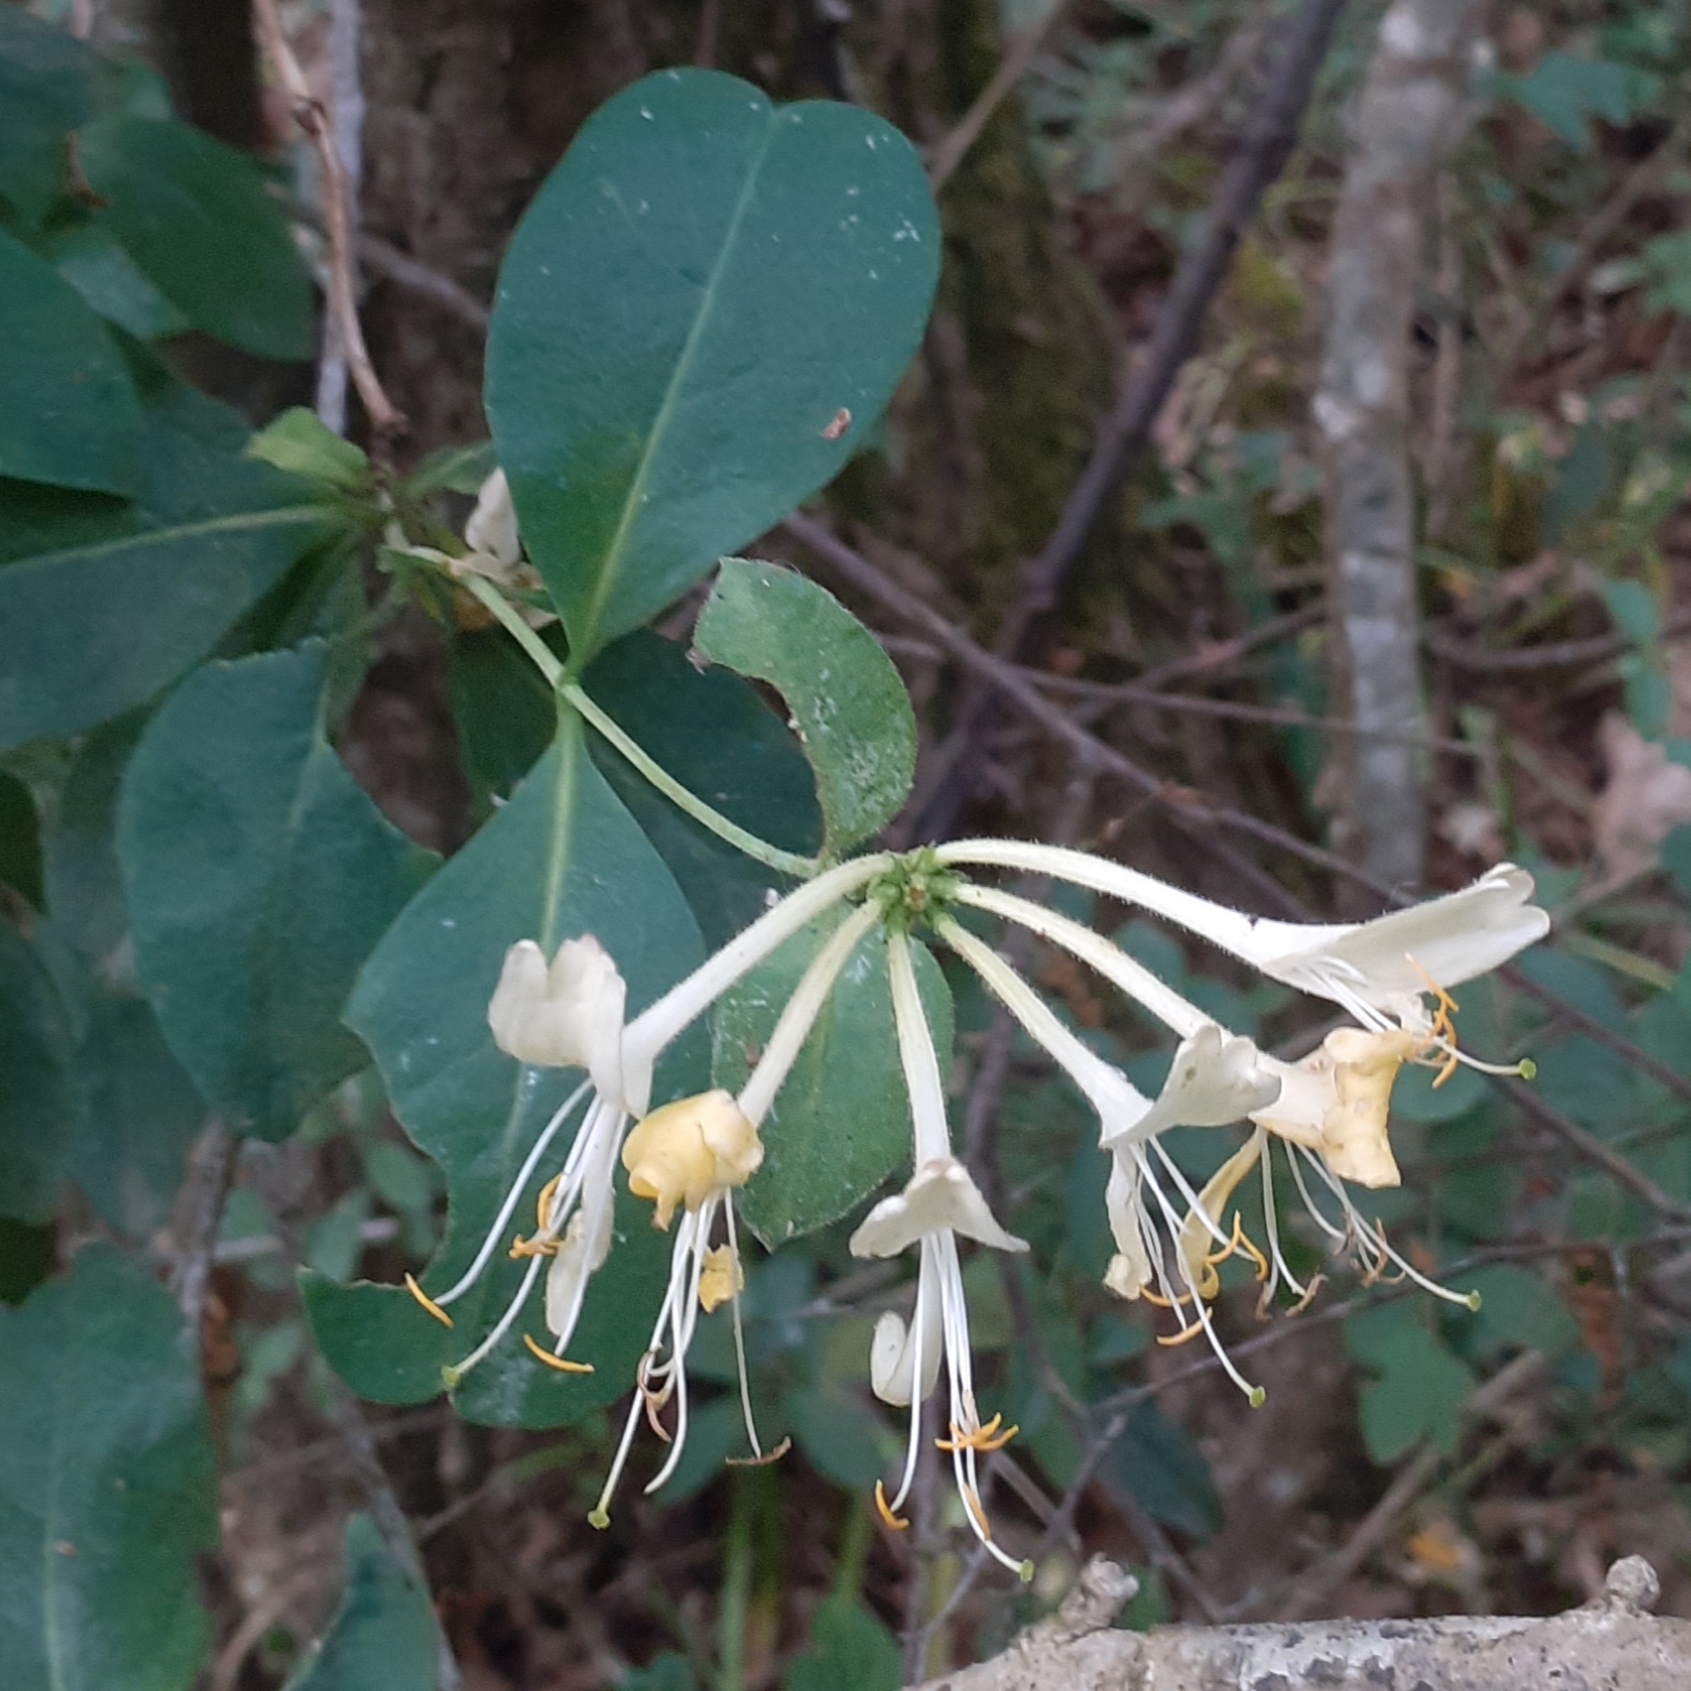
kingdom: Plantae
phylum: Tracheophyta
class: Magnoliopsida
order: Dipsacales
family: Caprifoliaceae
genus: Lonicera
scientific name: Lonicera periclymenum
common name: European honeysuckle
